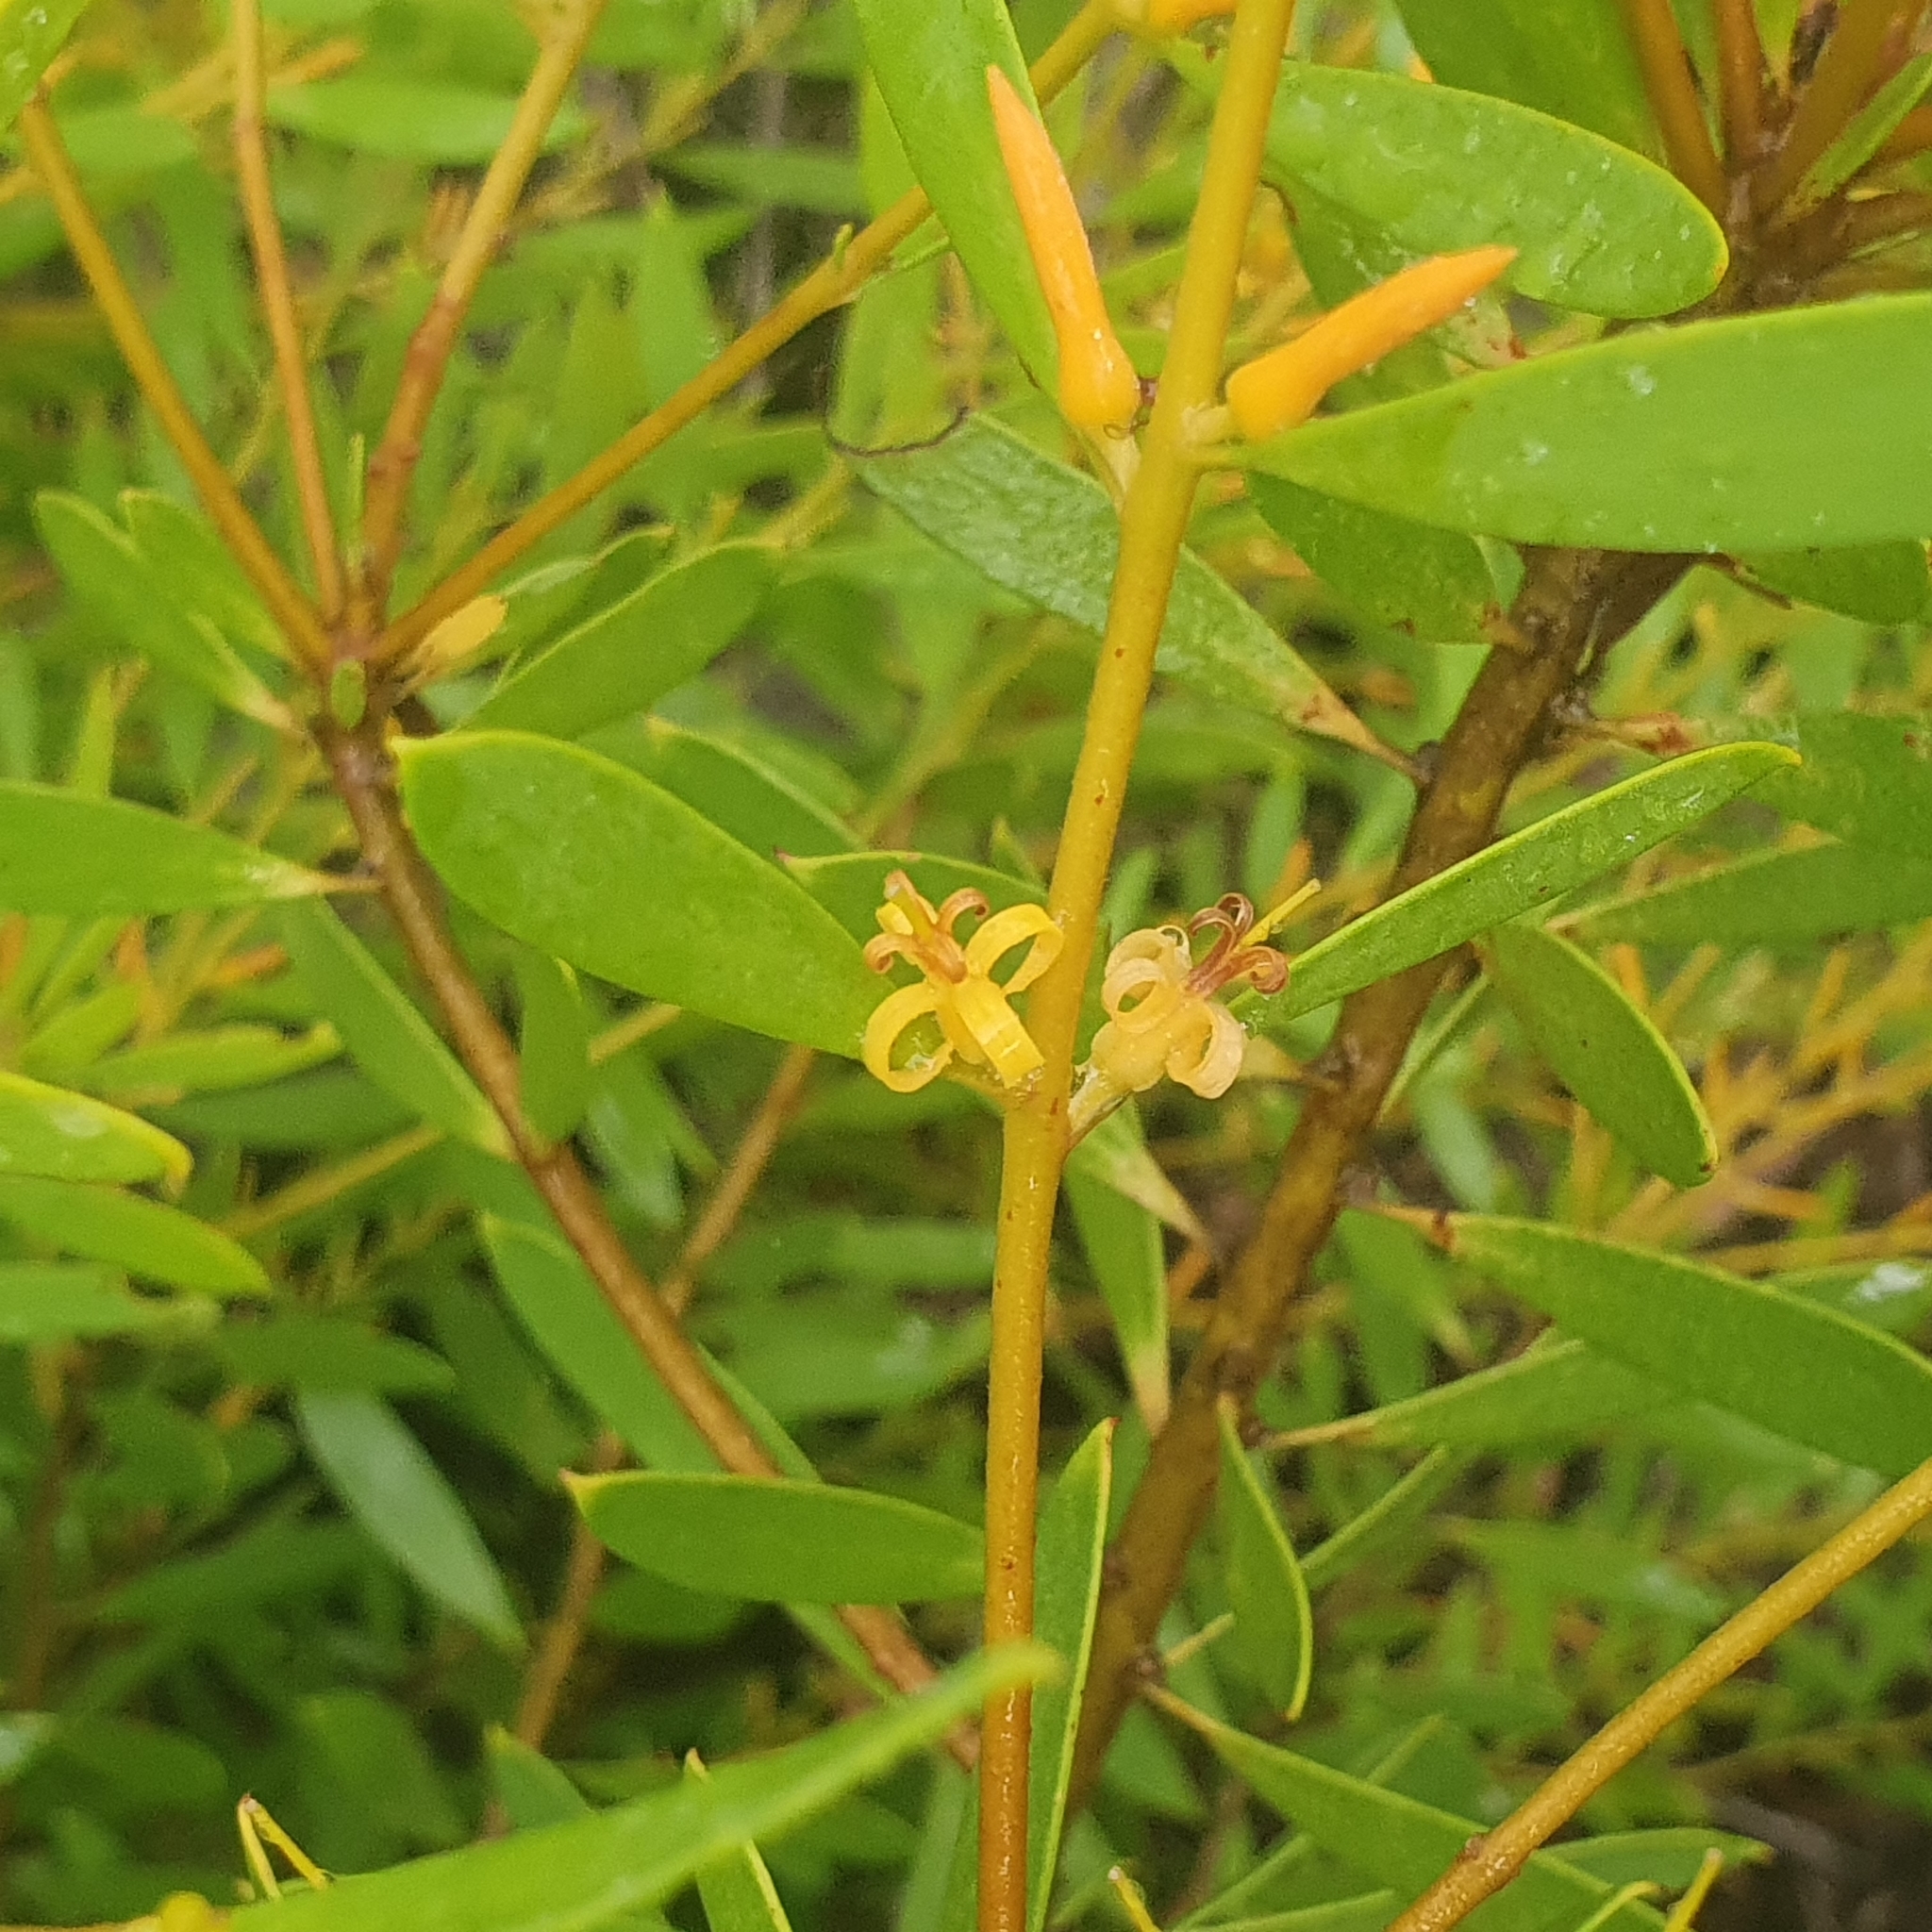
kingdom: Plantae
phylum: Tracheophyta
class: Magnoliopsida
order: Proteales
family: Proteaceae
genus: Persoonia
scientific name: Persoonia lanceolata
